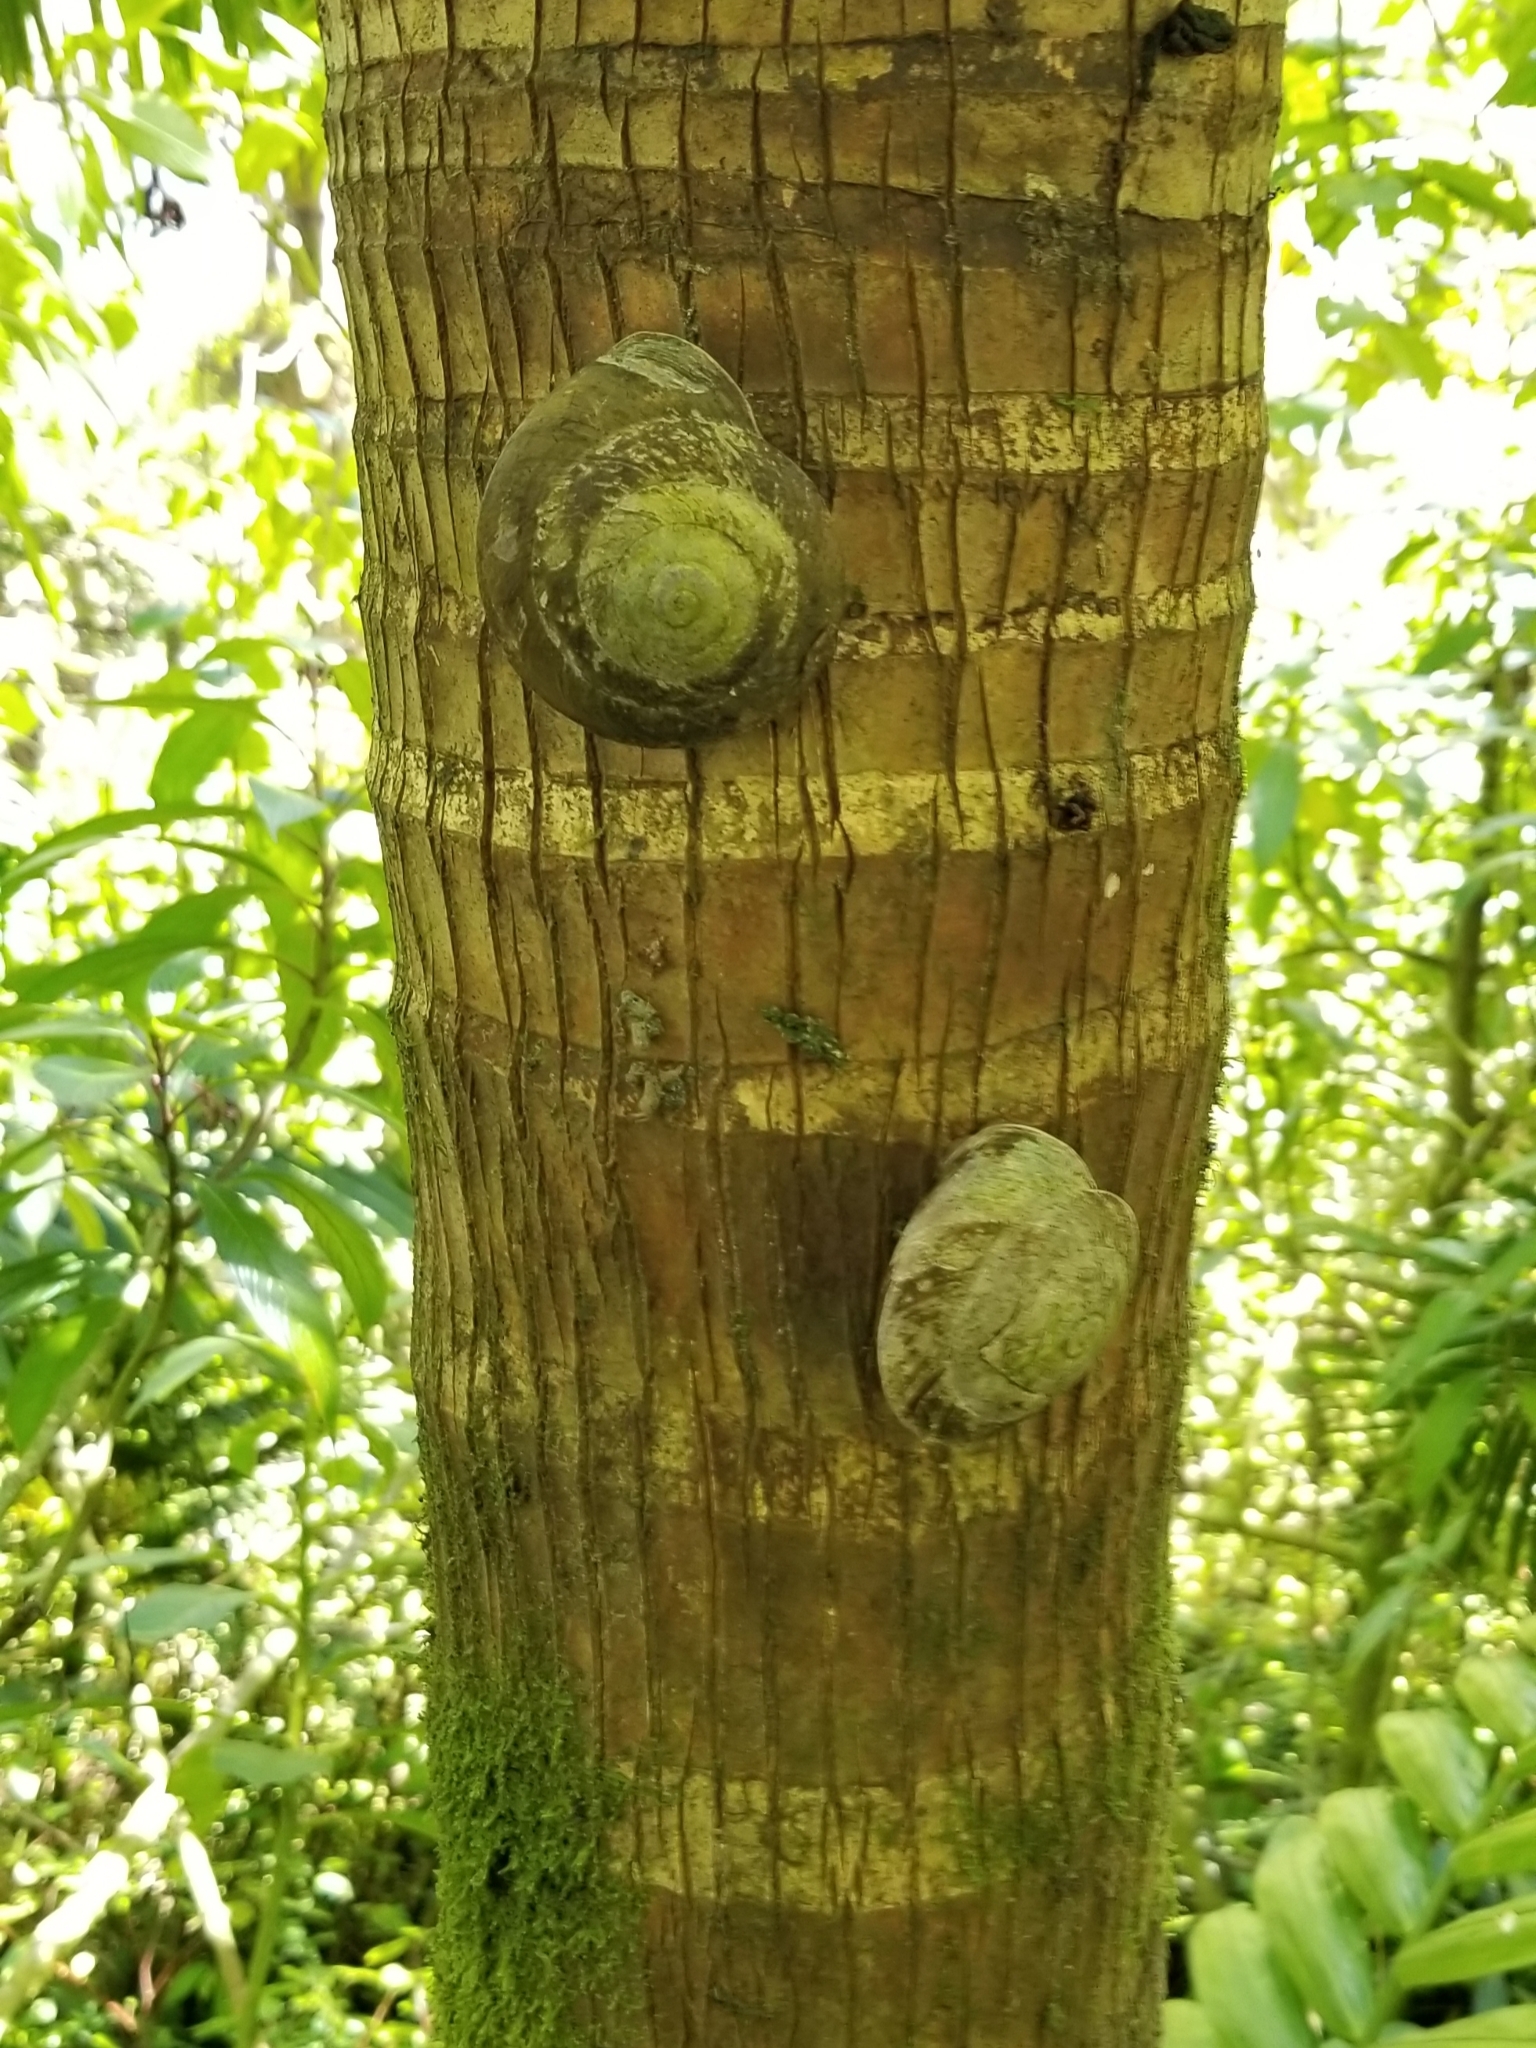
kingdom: Animalia
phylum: Mollusca
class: Gastropoda
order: Stylommatophora
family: Solaropsidae
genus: Caracolus
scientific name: Caracolus carocolla
